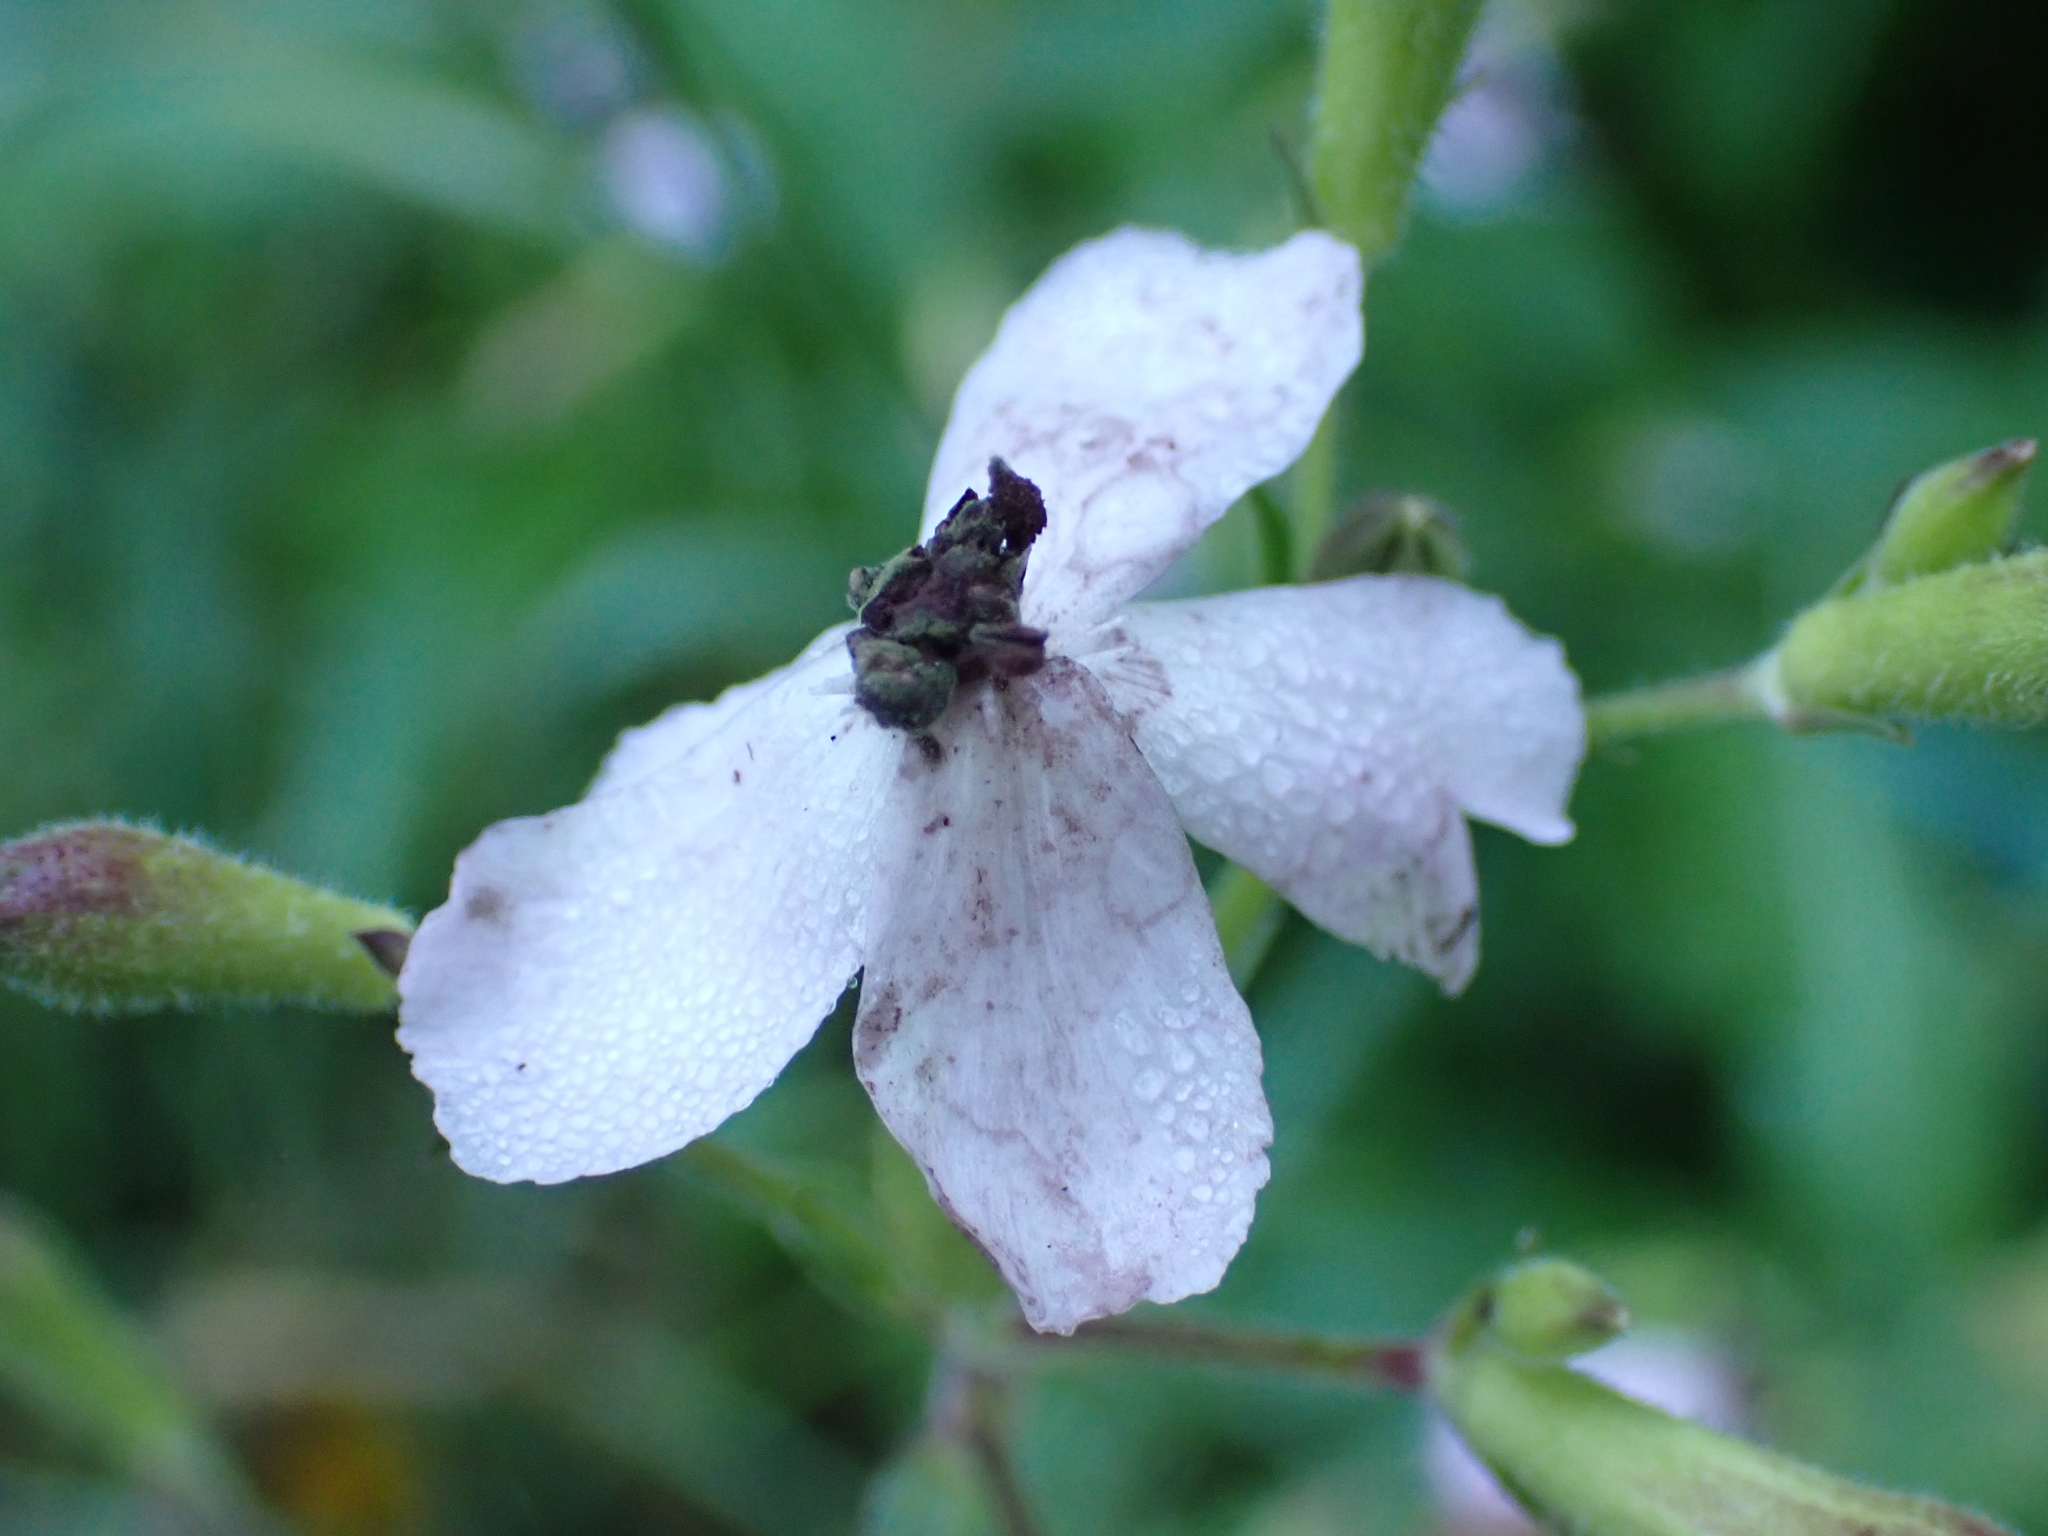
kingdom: Fungi
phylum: Basidiomycota
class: Microbotryomycetes
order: Microbotryales
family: Microbotryaceae
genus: Microbotryum
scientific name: Microbotryum lychnidis-dioicae
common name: Campion anther smut
